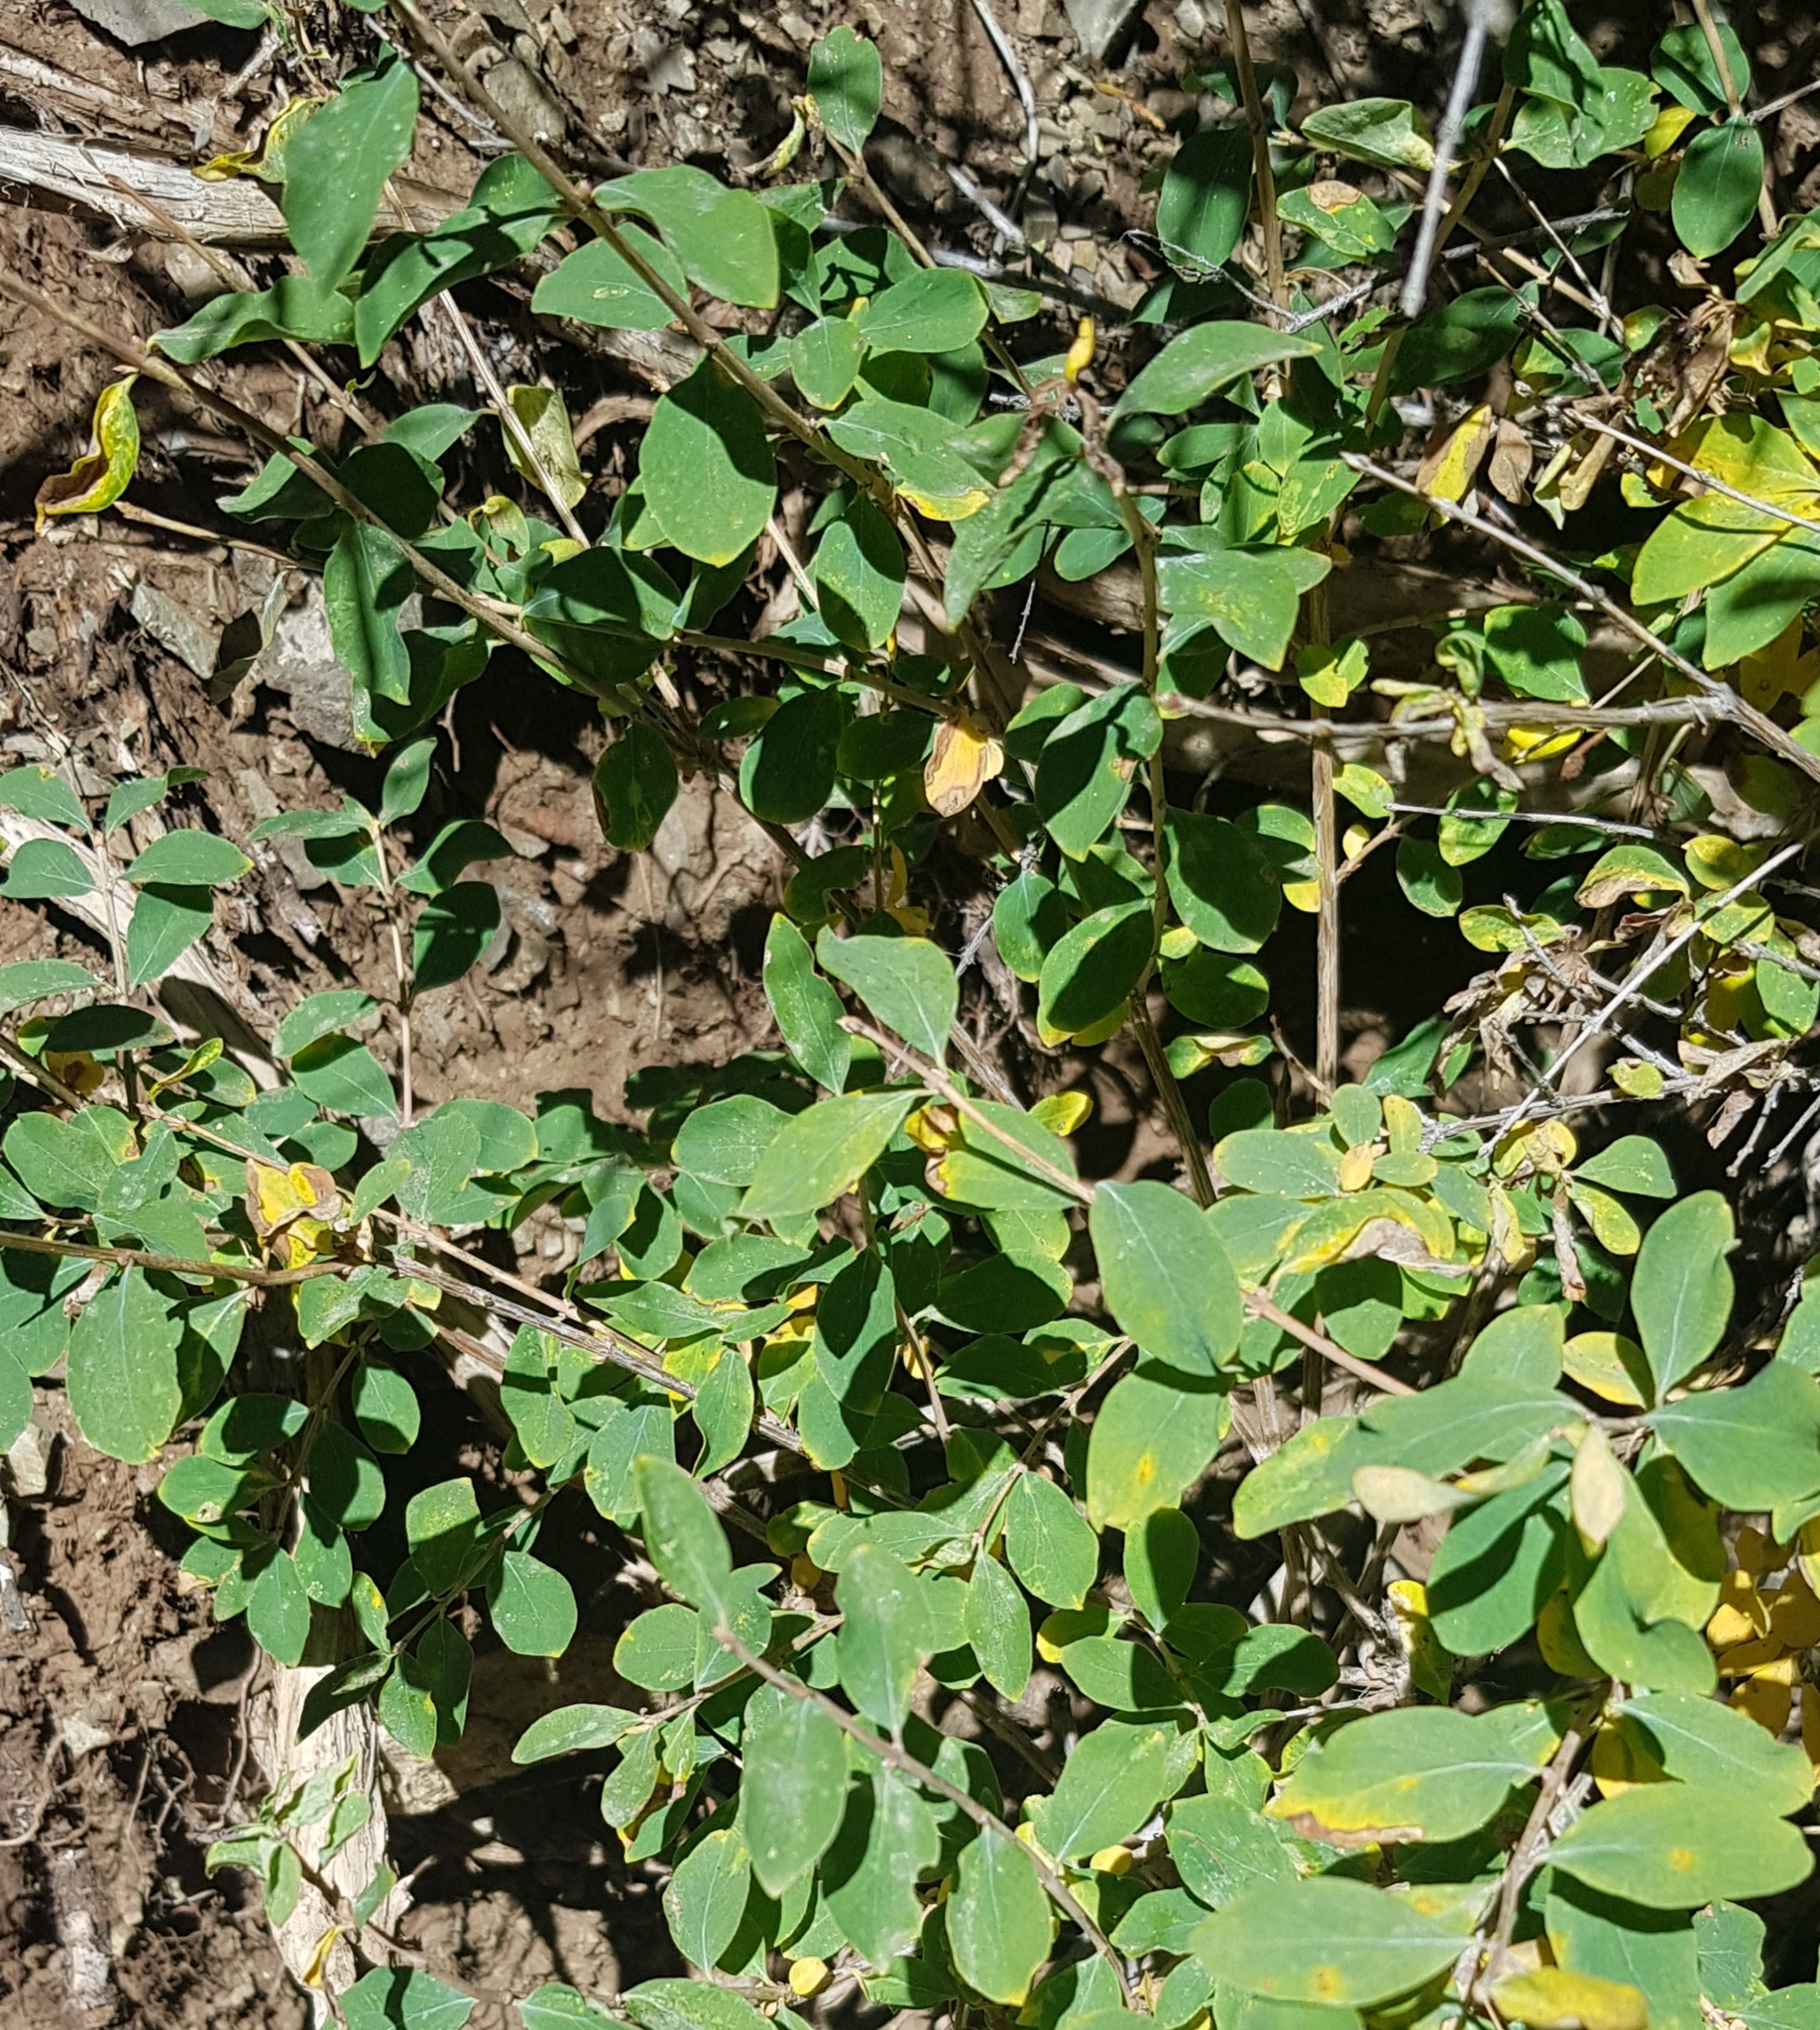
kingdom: Plantae
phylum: Tracheophyta
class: Magnoliopsida
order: Dipsacales
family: Caprifoliaceae
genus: Lonicera
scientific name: Lonicera microphylla
